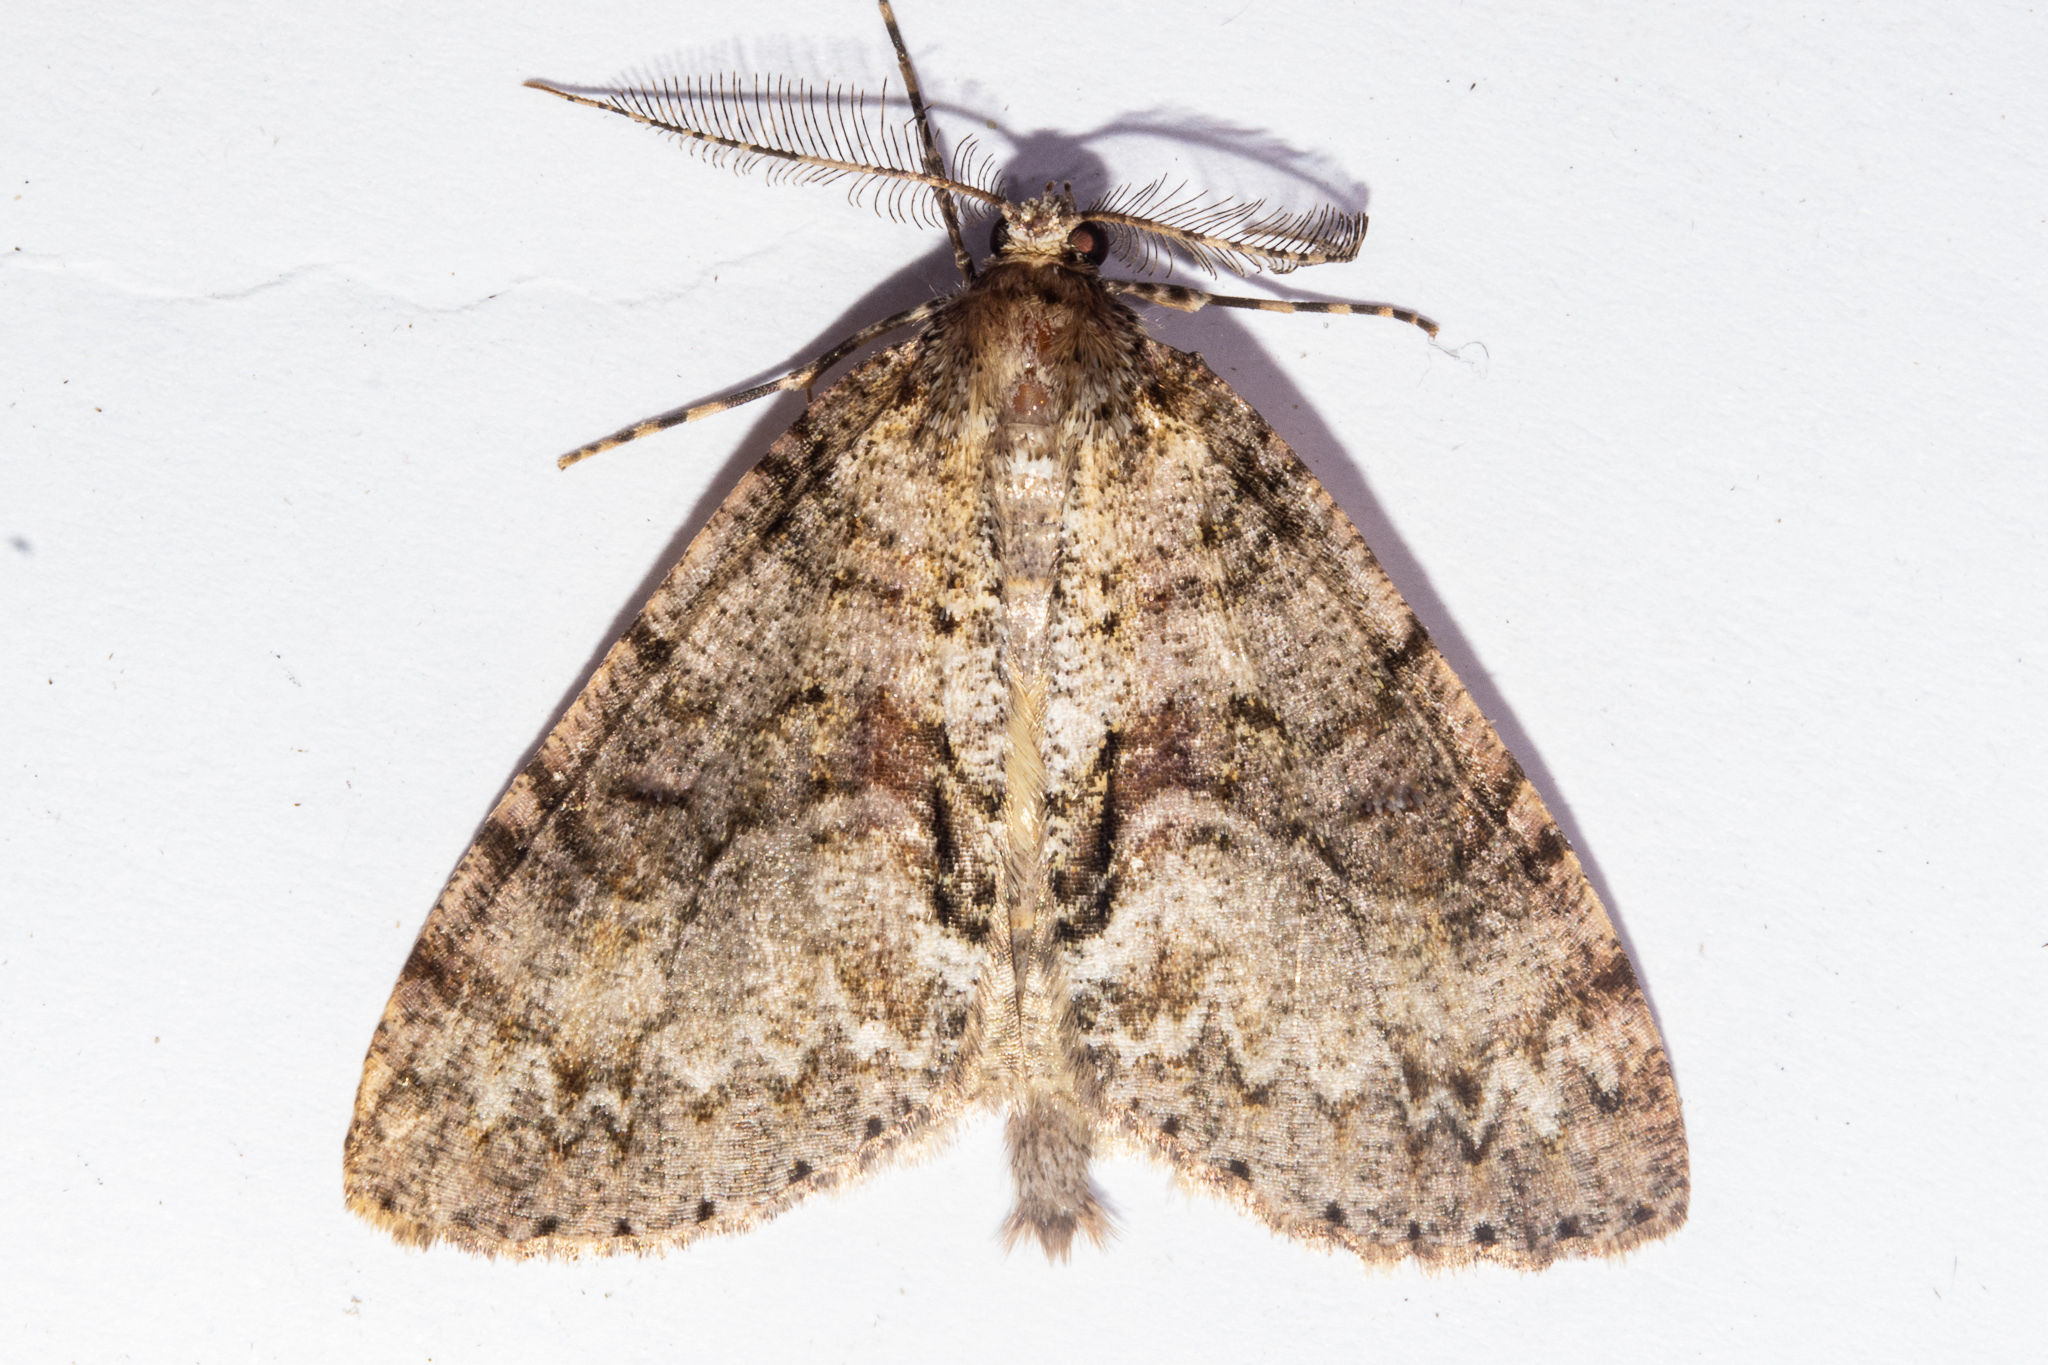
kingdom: Animalia
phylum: Arthropoda
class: Insecta
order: Lepidoptera
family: Geometridae
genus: Pseudocoremia
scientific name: Pseudocoremia suavis
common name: Common forest looper
